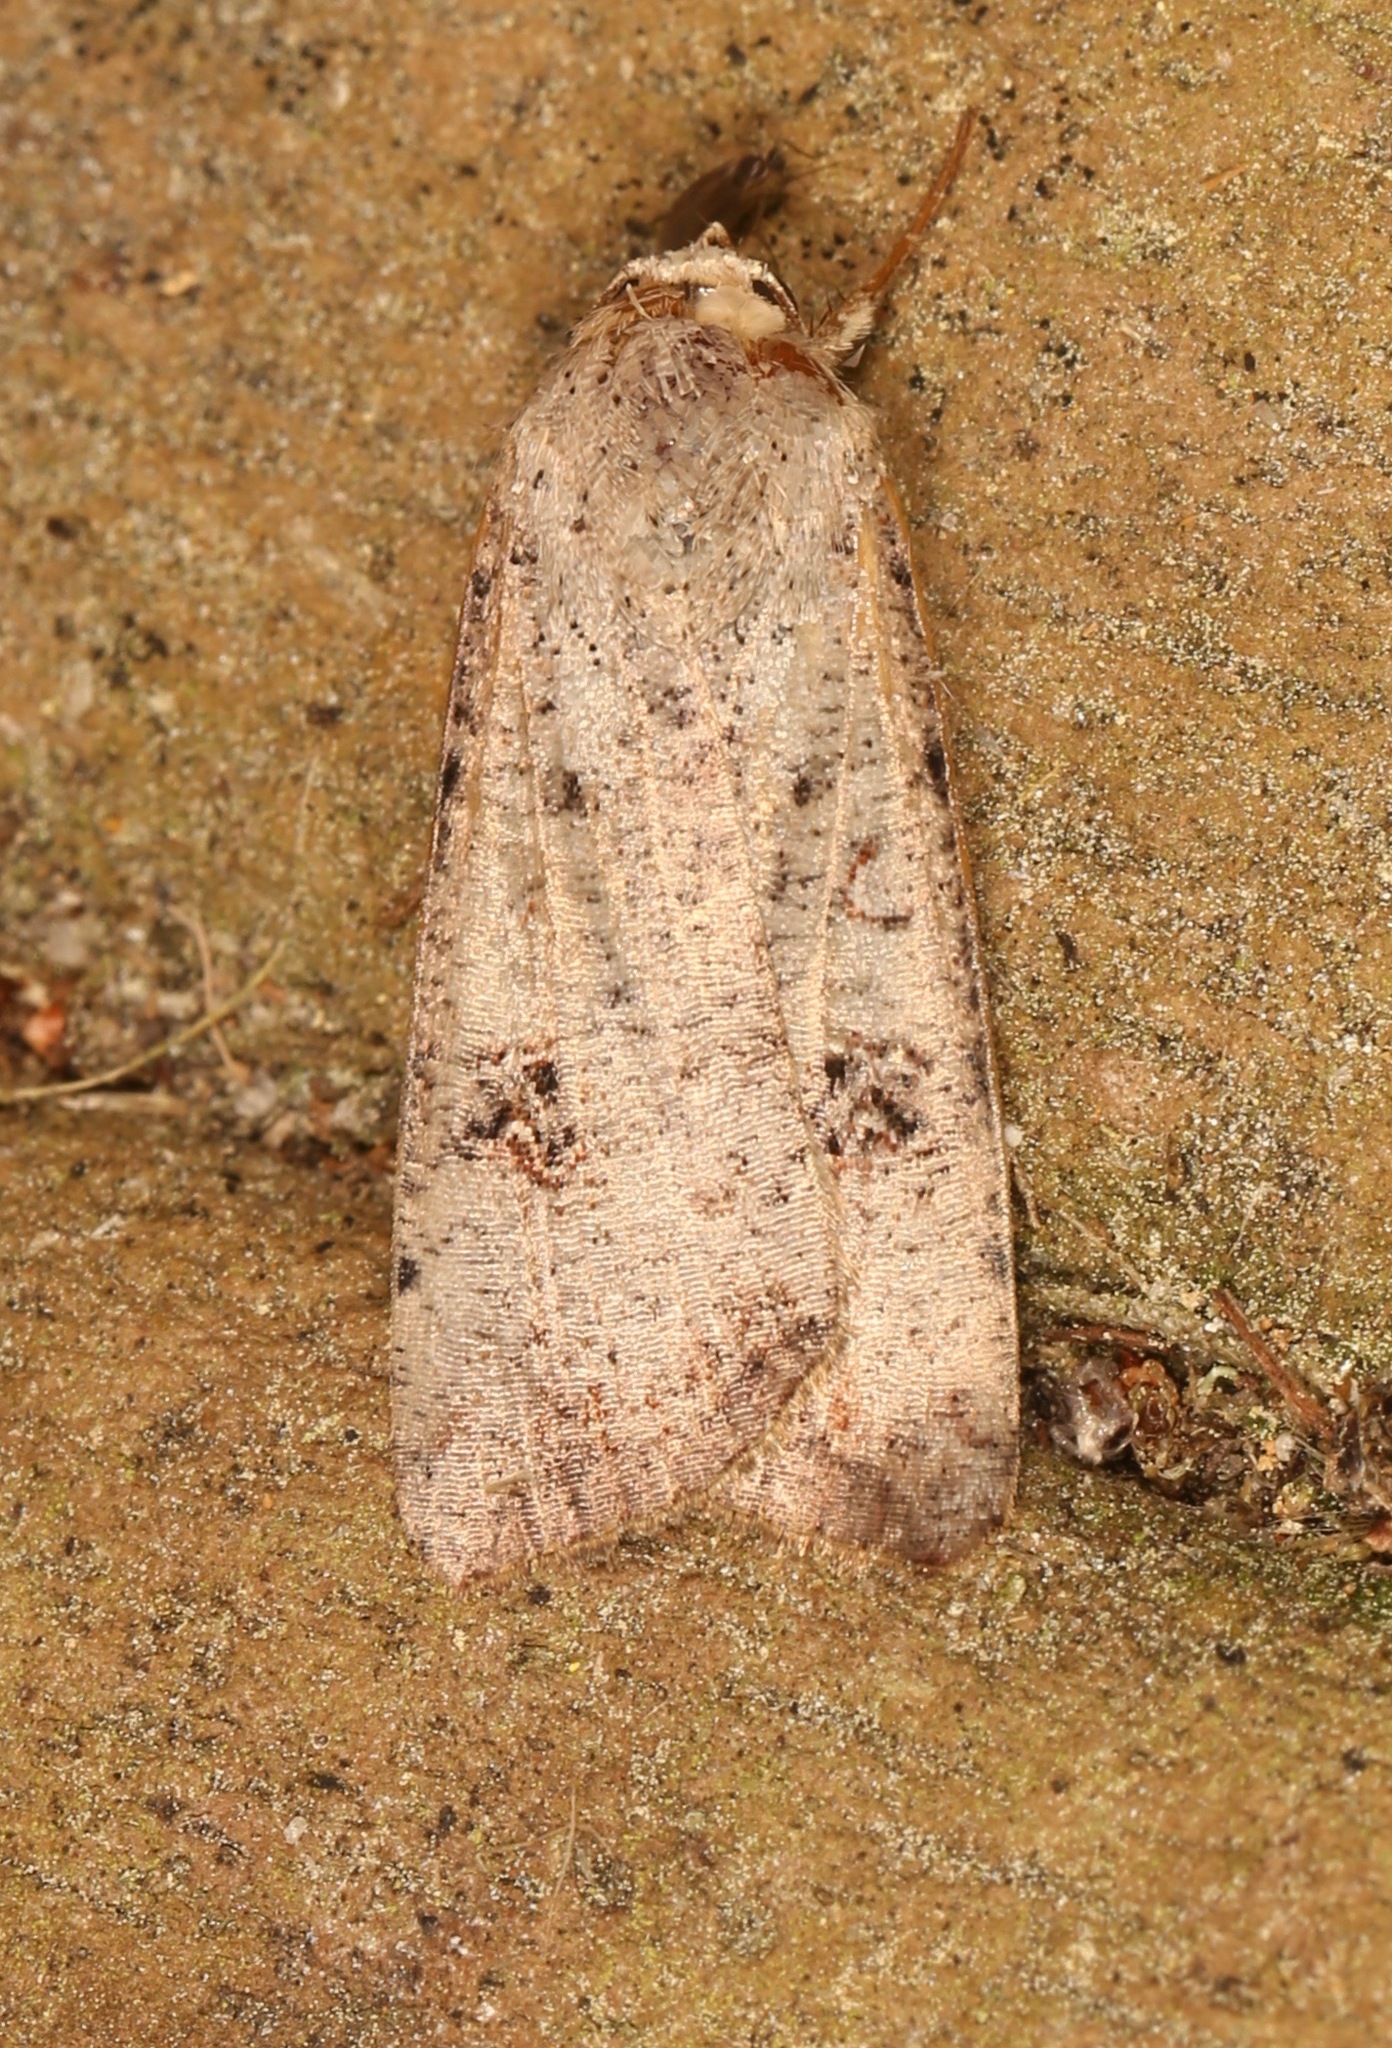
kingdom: Animalia
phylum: Arthropoda
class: Insecta
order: Lepidoptera
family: Noctuidae
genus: Anicla
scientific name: Anicla infecta
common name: Green cutworm
